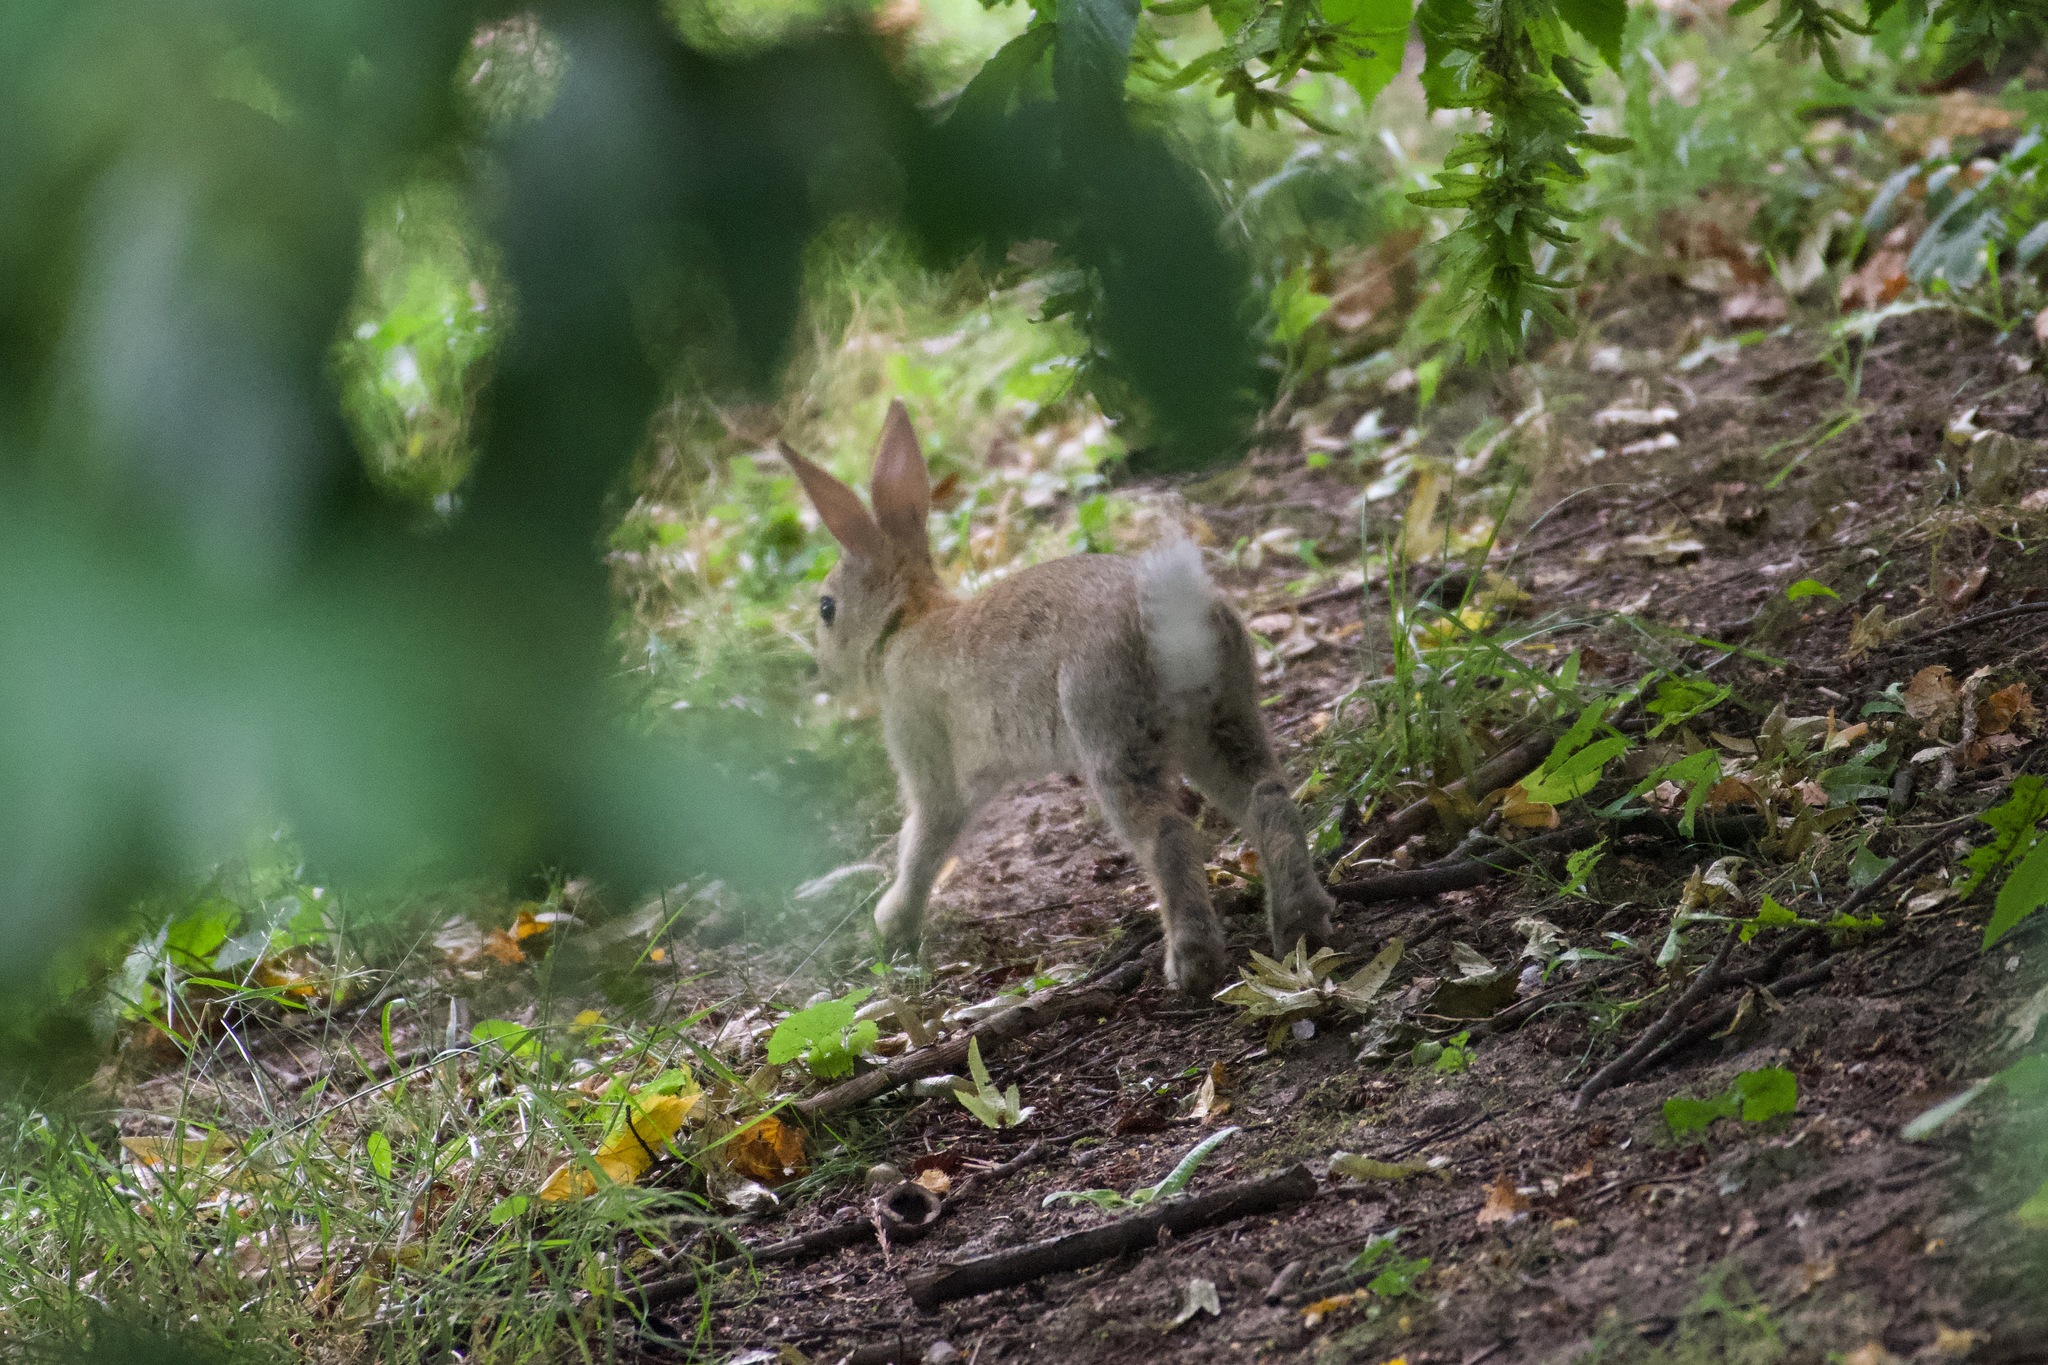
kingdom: Animalia
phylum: Chordata
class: Mammalia
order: Lagomorpha
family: Leporidae
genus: Oryctolagus
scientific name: Oryctolagus cuniculus
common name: European rabbit
